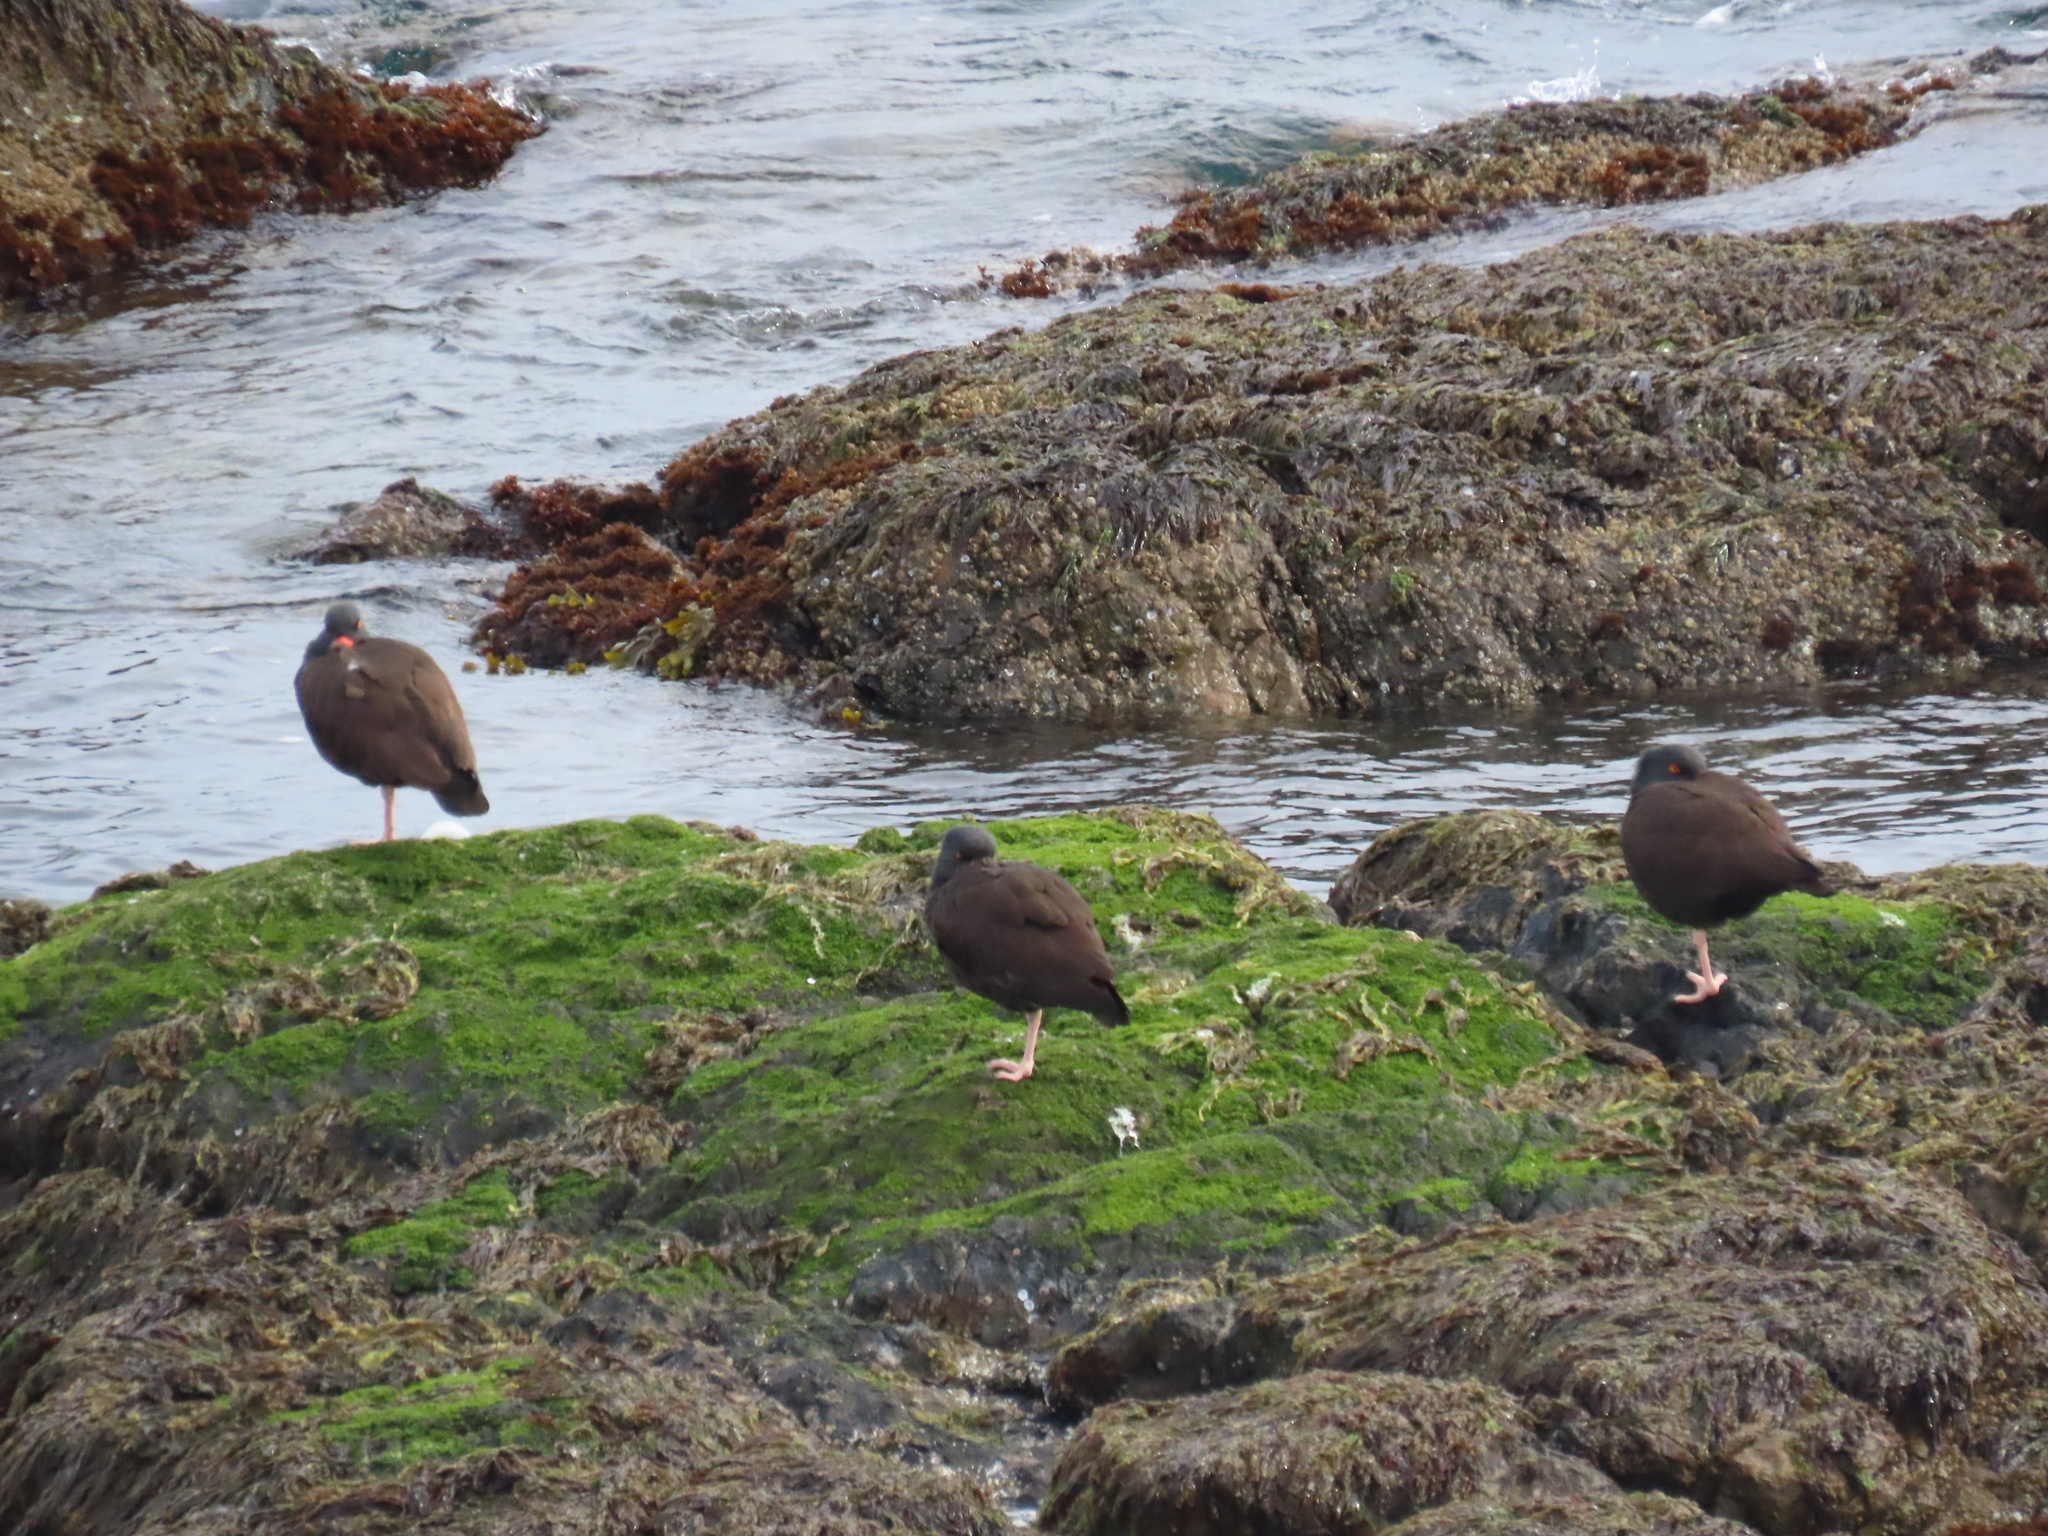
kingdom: Animalia
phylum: Chordata
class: Aves
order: Charadriiformes
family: Haematopodidae
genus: Haematopus
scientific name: Haematopus bachmani
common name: Black oystercatcher
